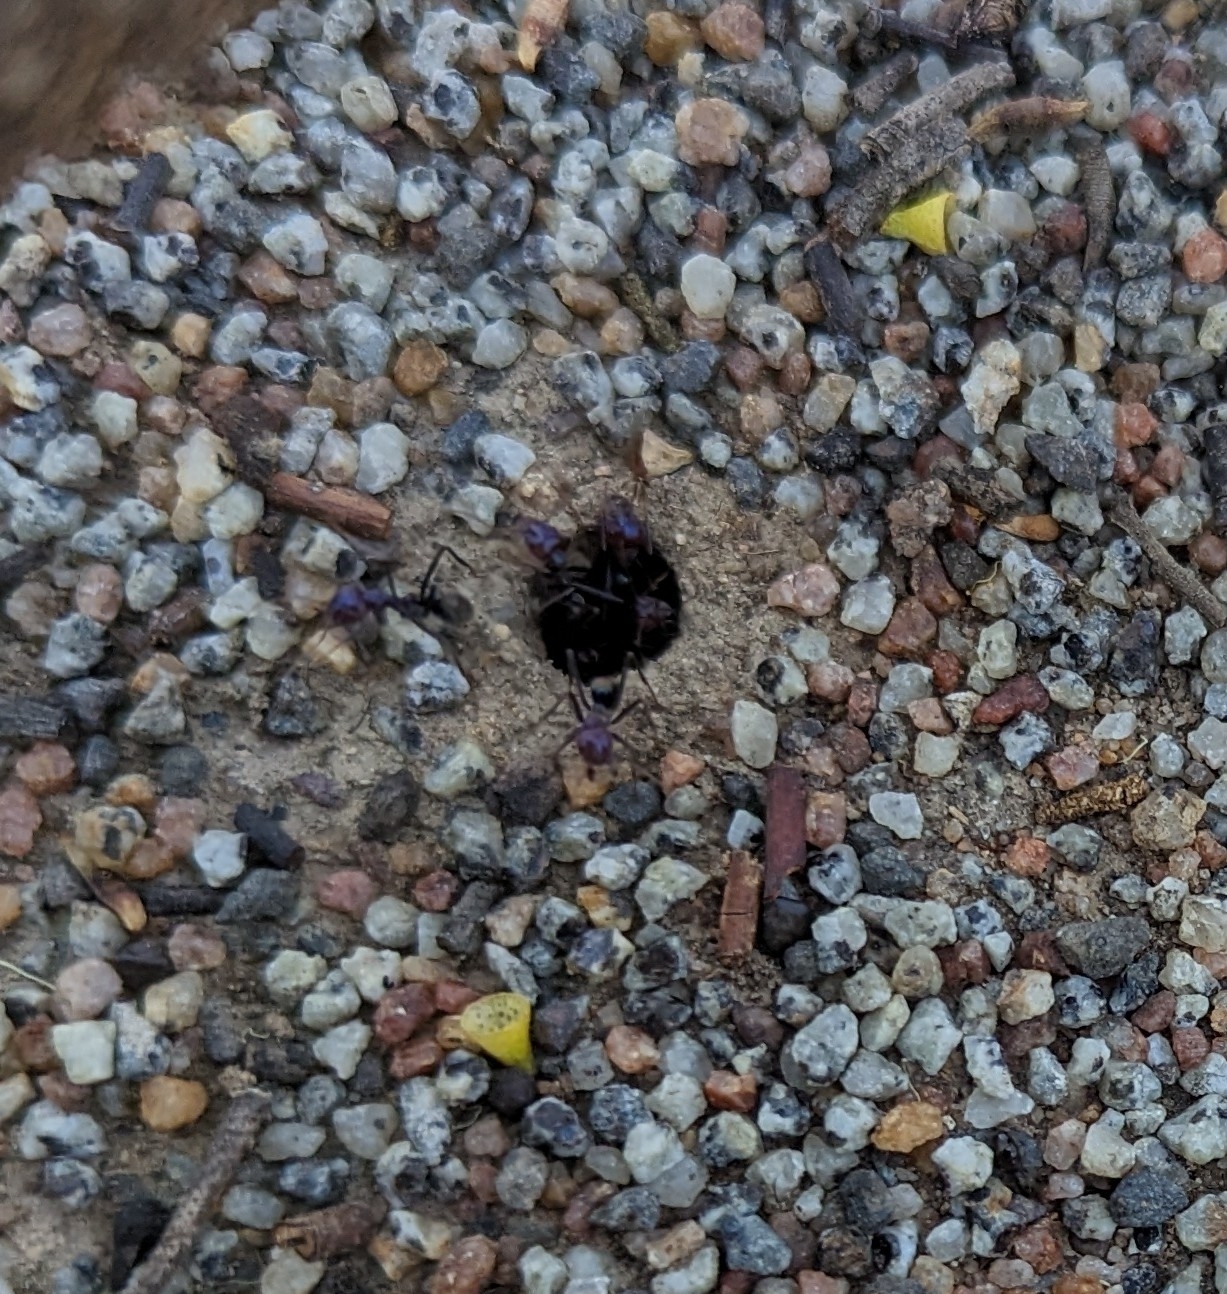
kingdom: Animalia
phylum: Arthropoda
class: Insecta
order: Hymenoptera
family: Formicidae
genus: Iridomyrmex
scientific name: Iridomyrmex purpureus
